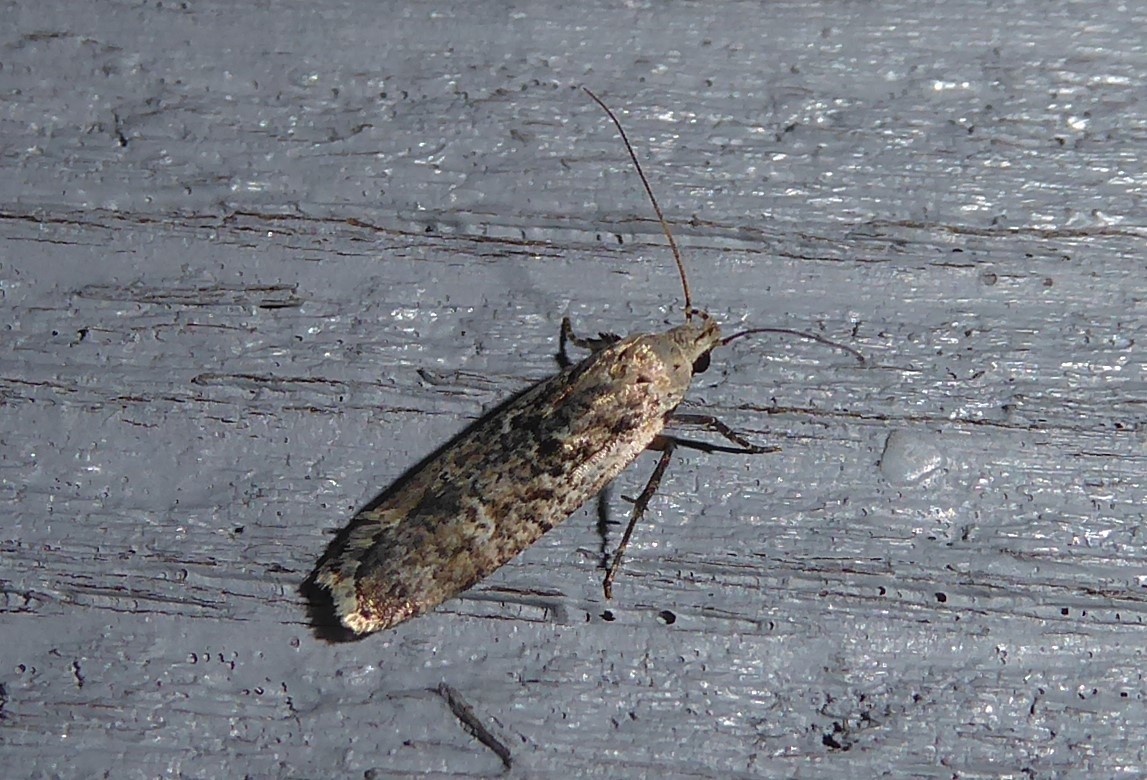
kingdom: Animalia
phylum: Arthropoda
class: Insecta
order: Lepidoptera
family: Gelechiidae
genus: Anisoplaca
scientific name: Anisoplaca achyrota
